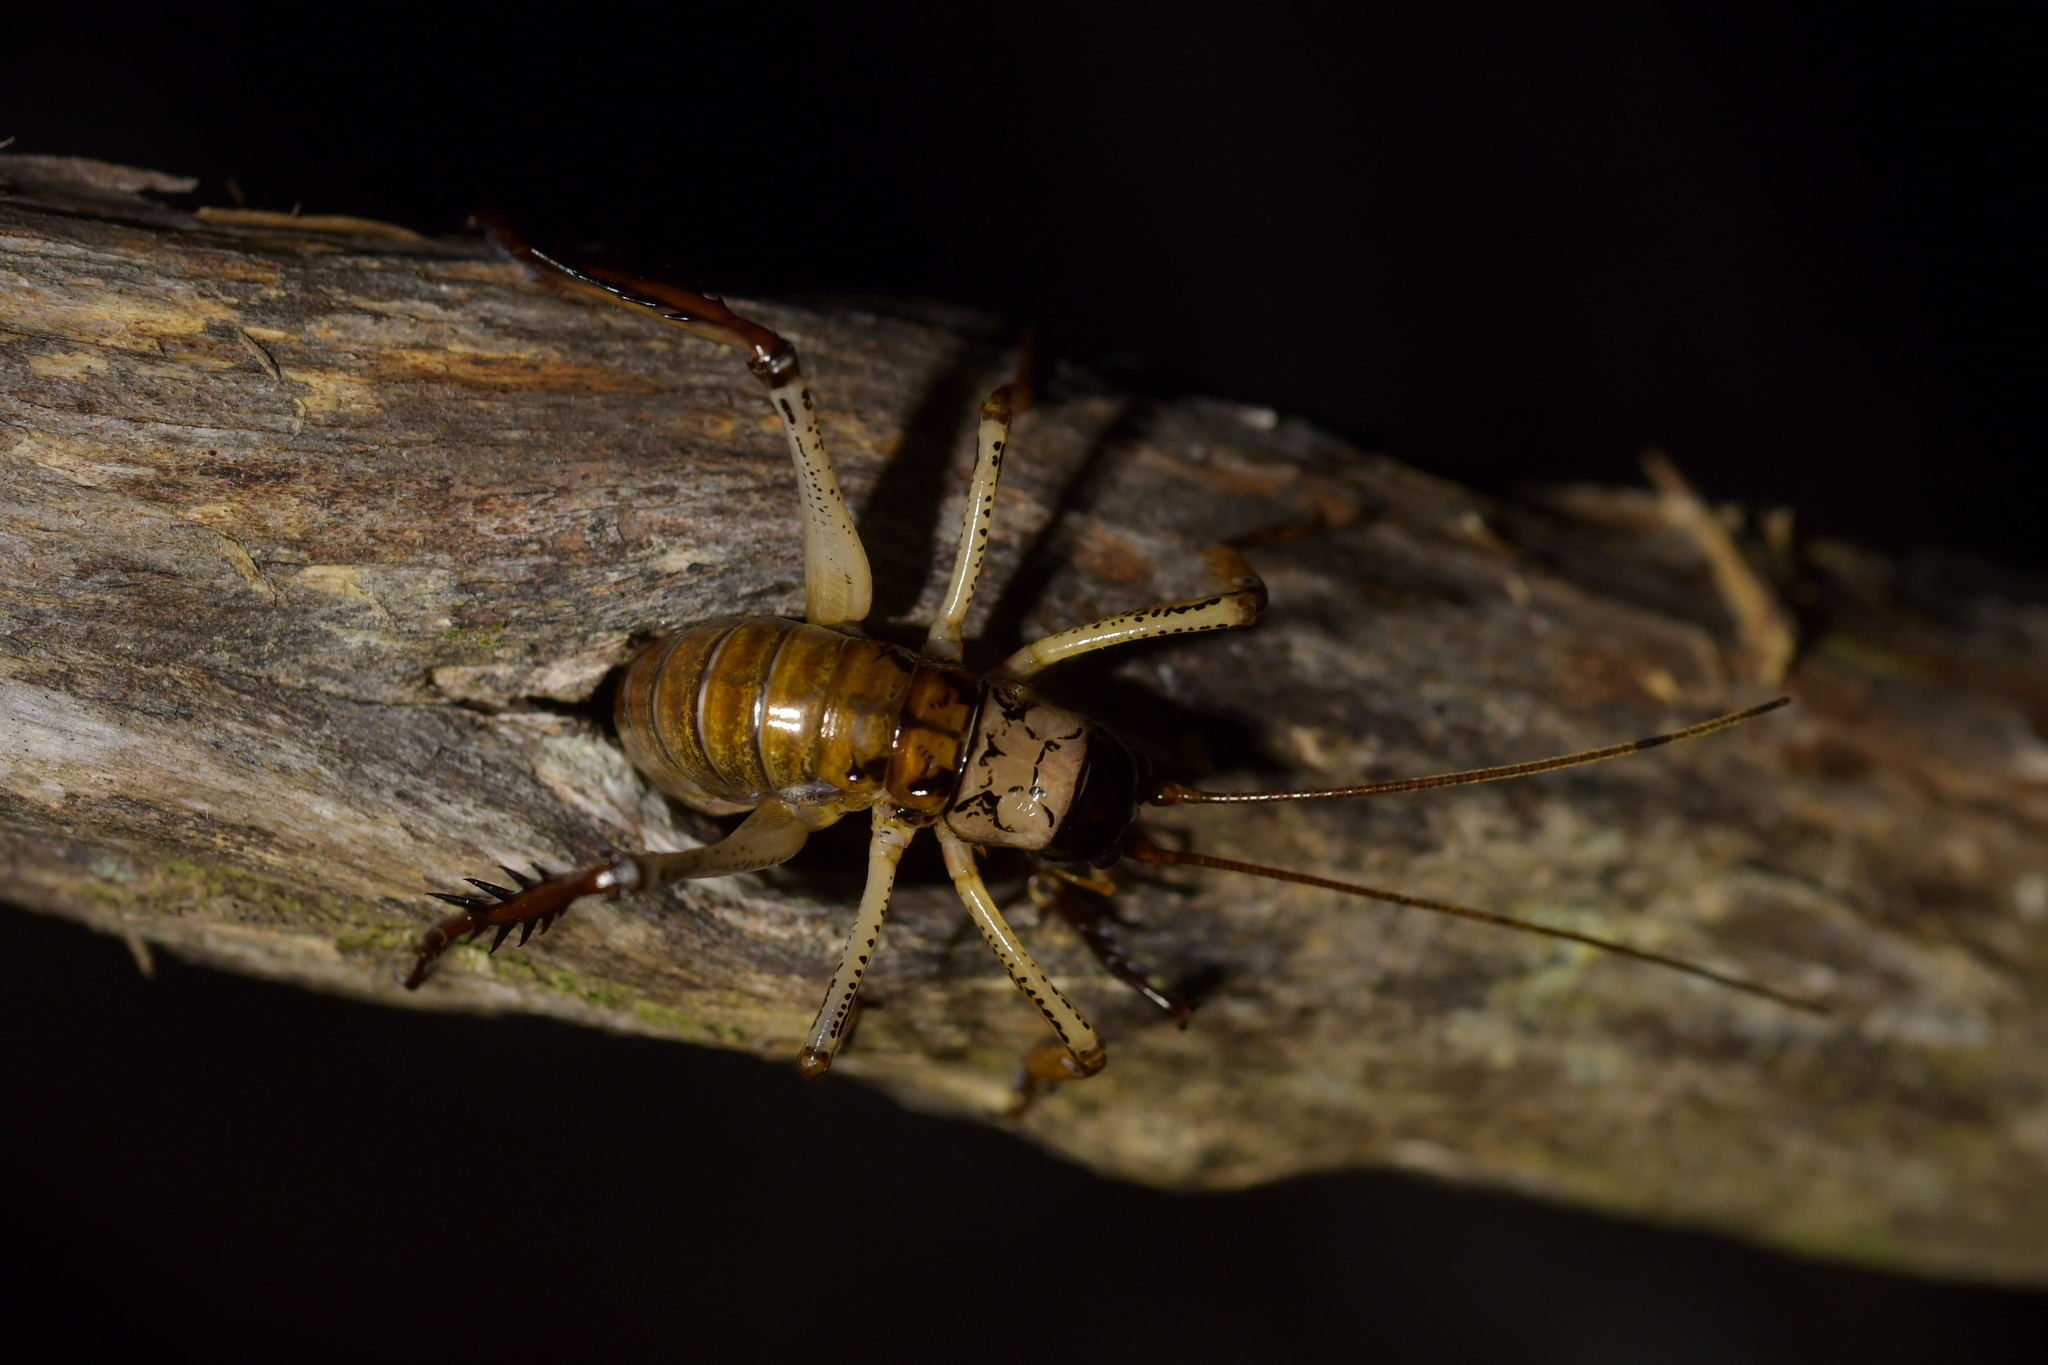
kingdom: Animalia
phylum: Arthropoda
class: Insecta
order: Orthoptera
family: Anostostomatidae
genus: Hemideina
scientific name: Hemideina thoracica
